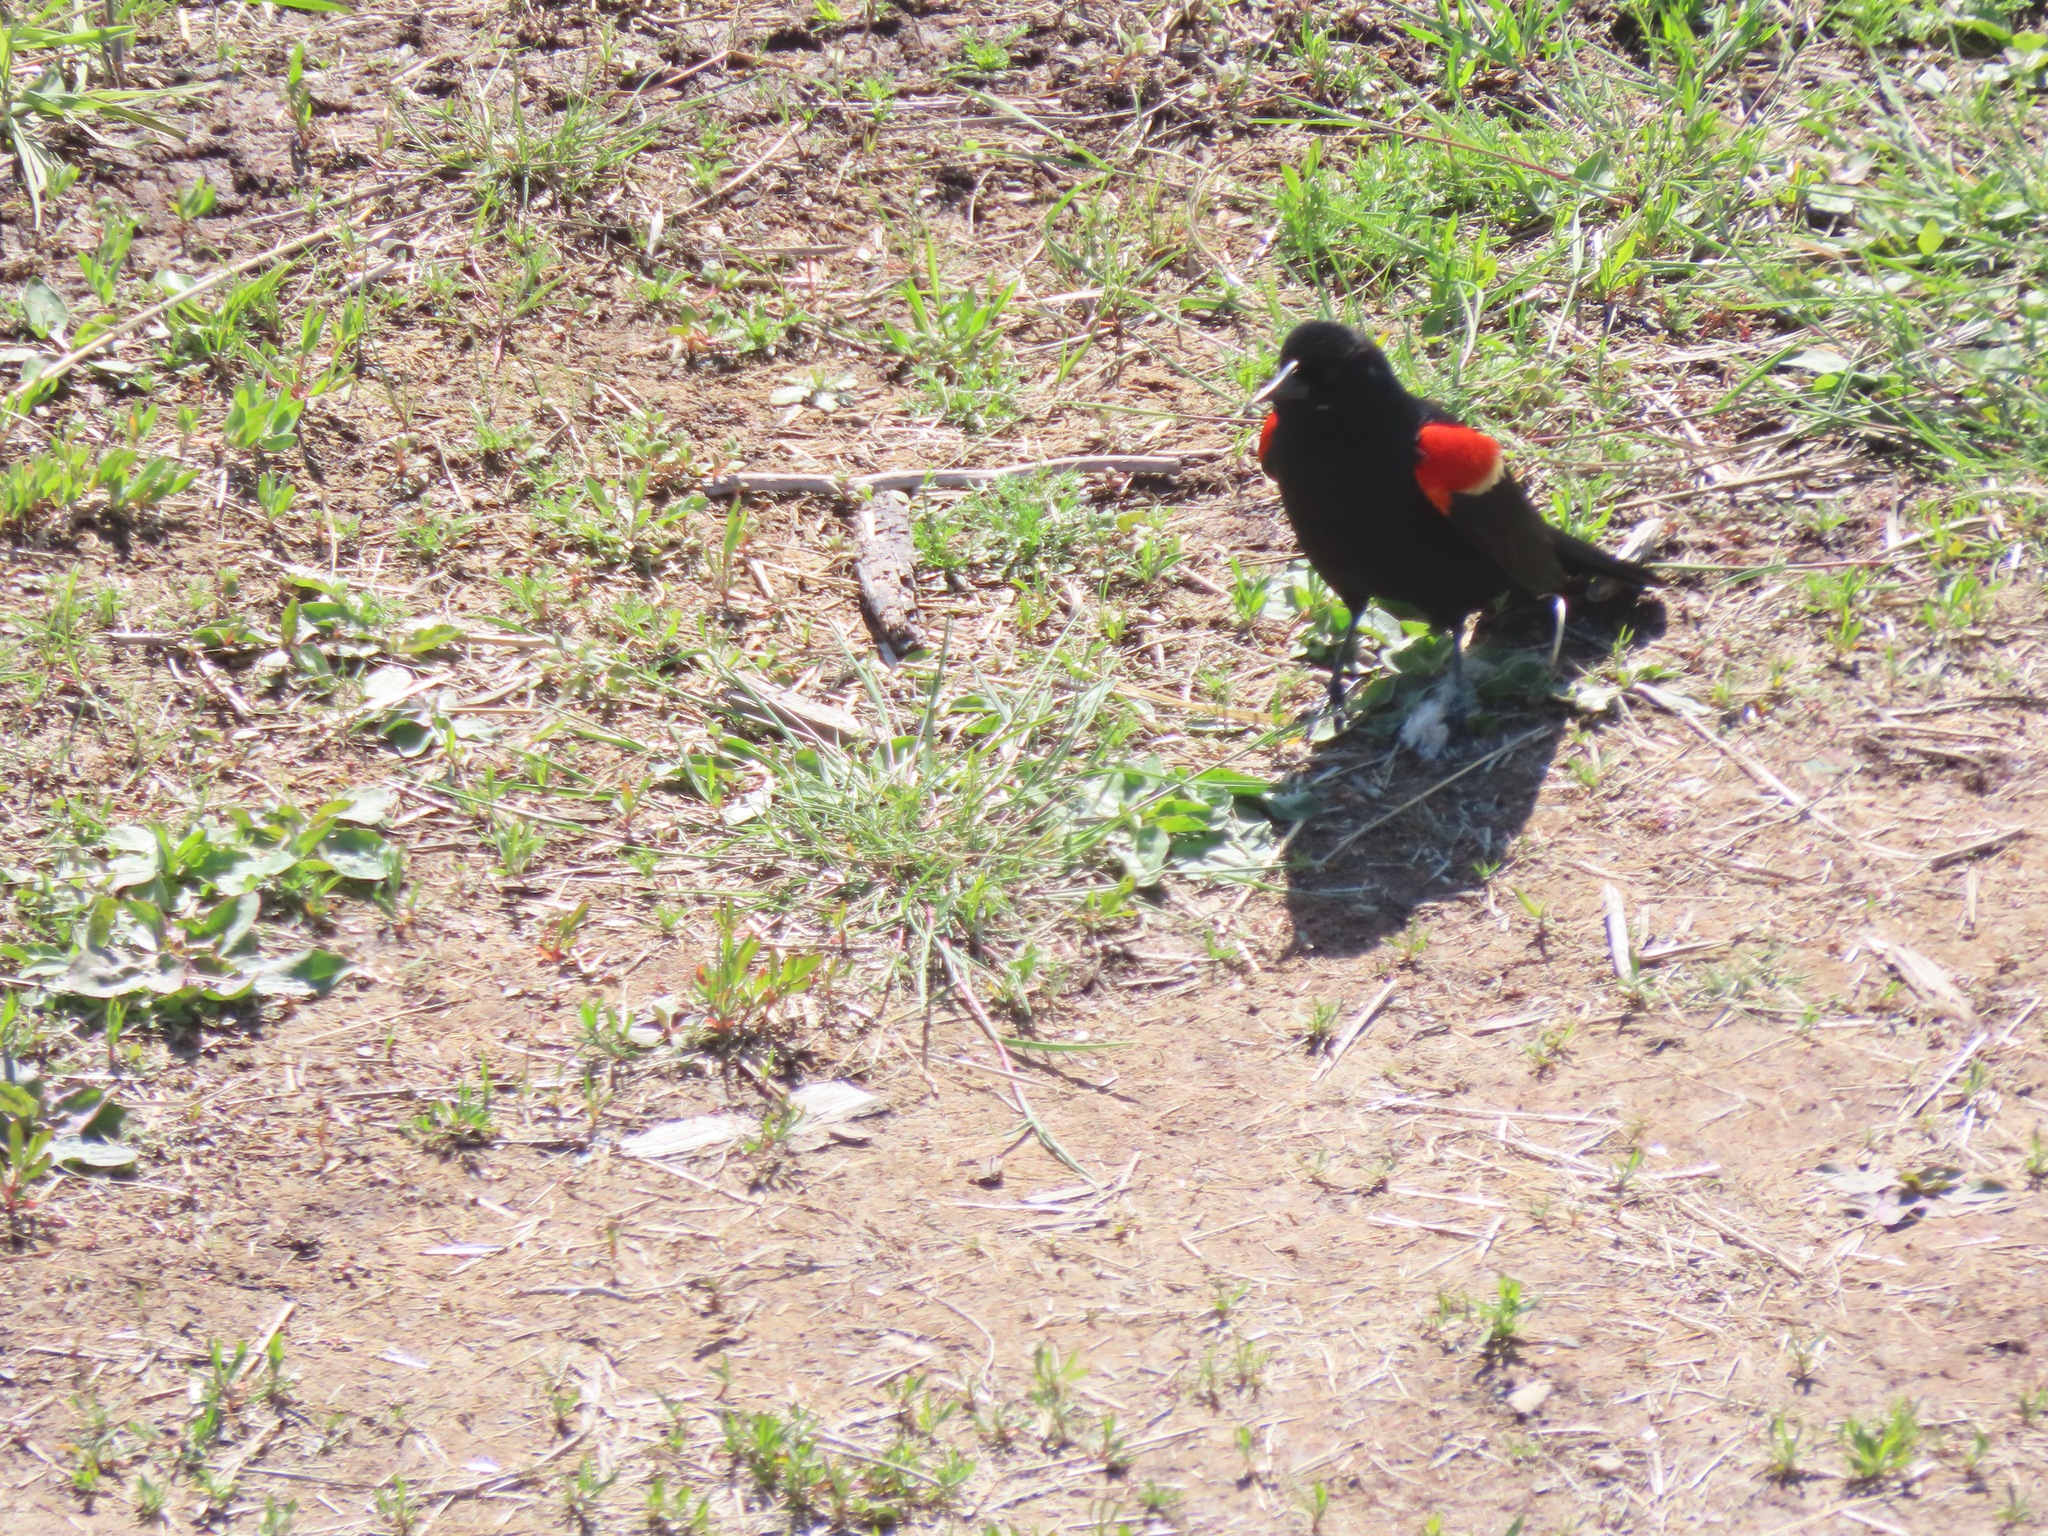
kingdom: Animalia
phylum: Chordata
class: Aves
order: Passeriformes
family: Icteridae
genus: Agelaius
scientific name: Agelaius phoeniceus
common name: Red-winged blackbird
